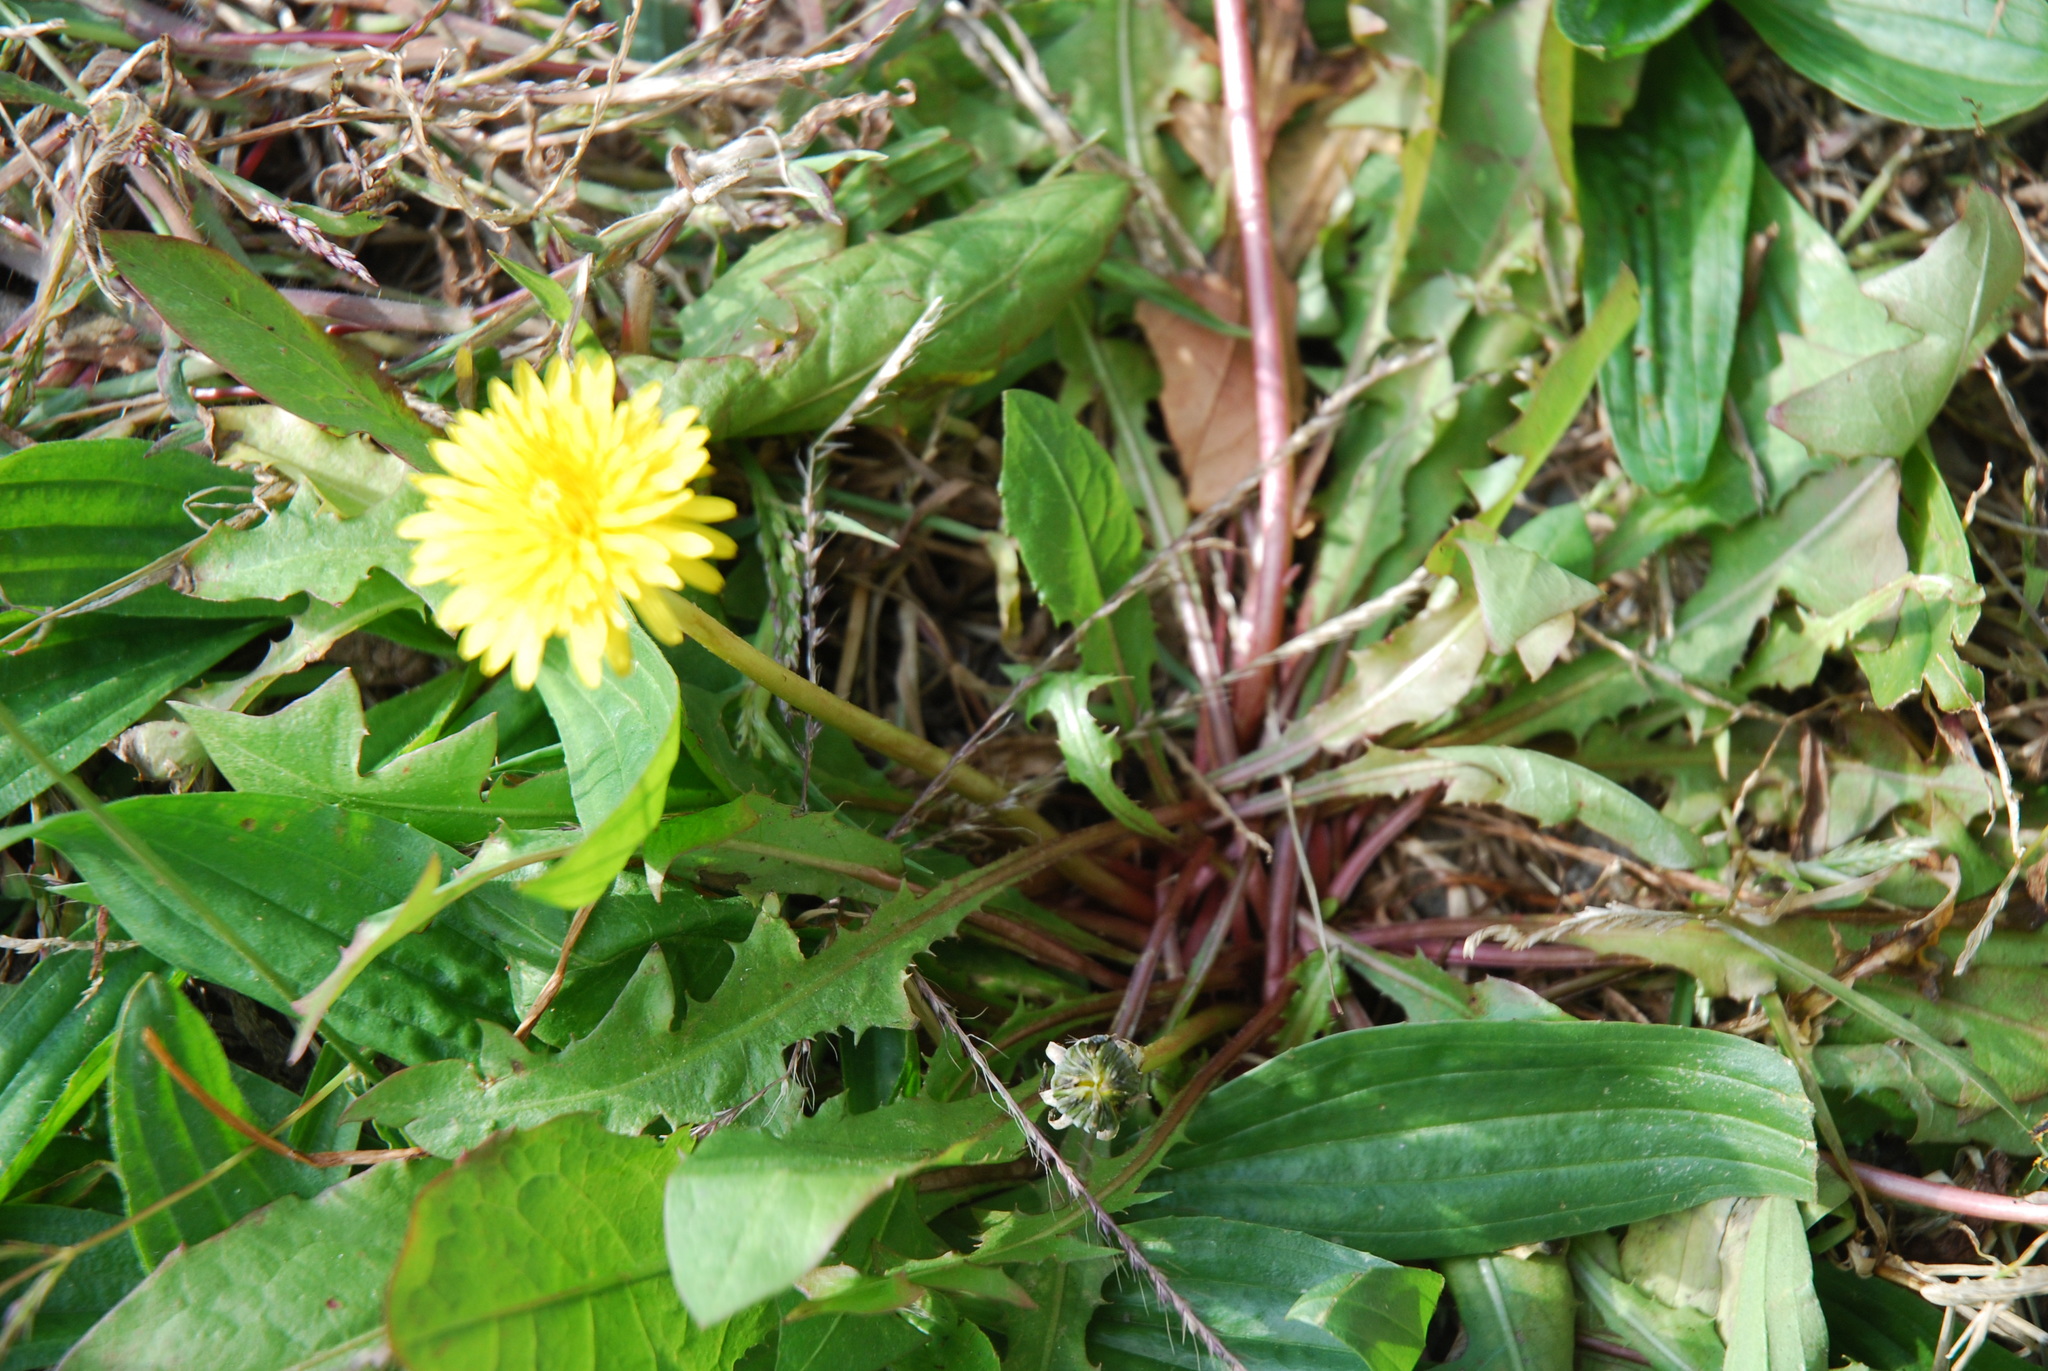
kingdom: Plantae
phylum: Tracheophyta
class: Magnoliopsida
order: Asterales
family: Asteraceae
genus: Taraxacum
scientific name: Taraxacum officinale
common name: Common dandelion
